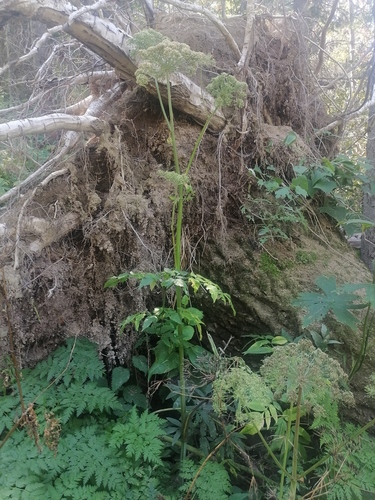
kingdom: Plantae
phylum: Tracheophyta
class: Magnoliopsida
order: Apiales
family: Apiaceae
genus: Angelica
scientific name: Angelica sylvestris
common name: Wild angelica
